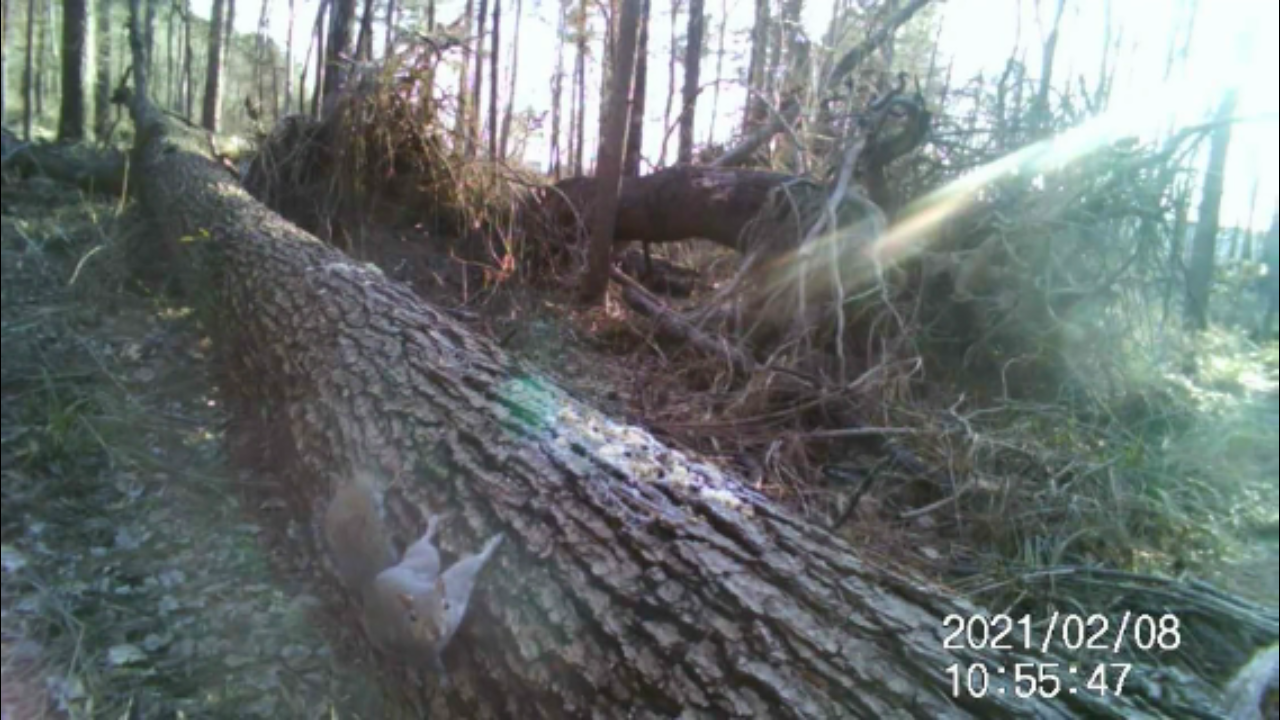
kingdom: Animalia
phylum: Chordata
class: Mammalia
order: Rodentia
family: Sciuridae
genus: Sciurus
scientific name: Sciurus carolinensis
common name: Eastern gray squirrel
